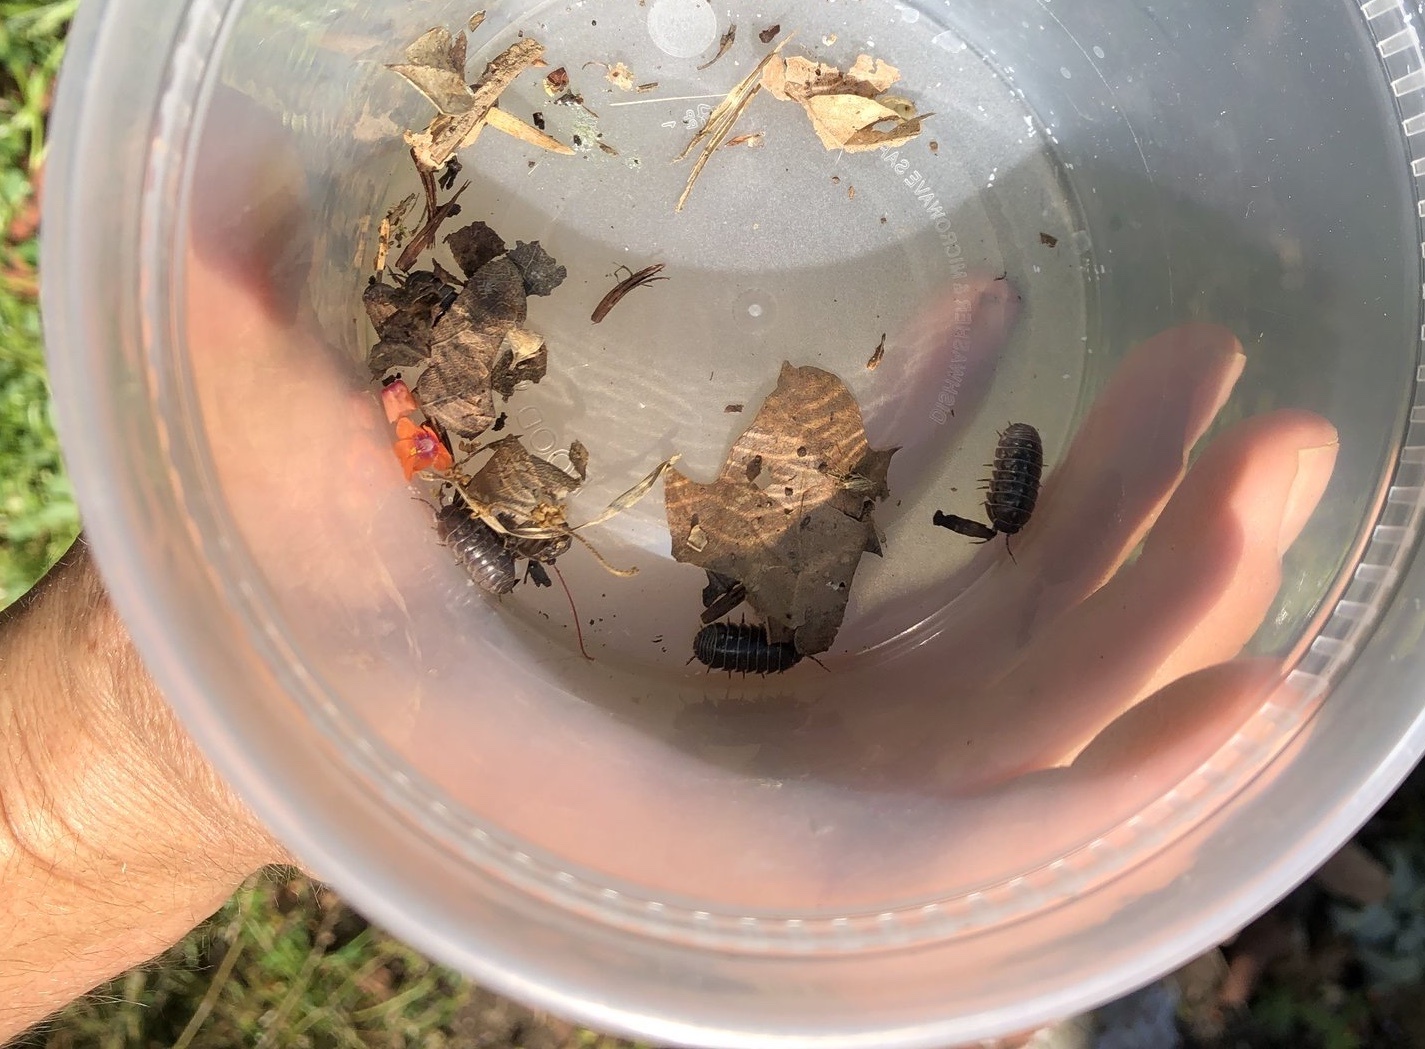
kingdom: Animalia
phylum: Arthropoda
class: Malacostraca
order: Isopoda
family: Armadillidiidae
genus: Armadillidium
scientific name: Armadillidium vulgare
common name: Common pill woodlouse
